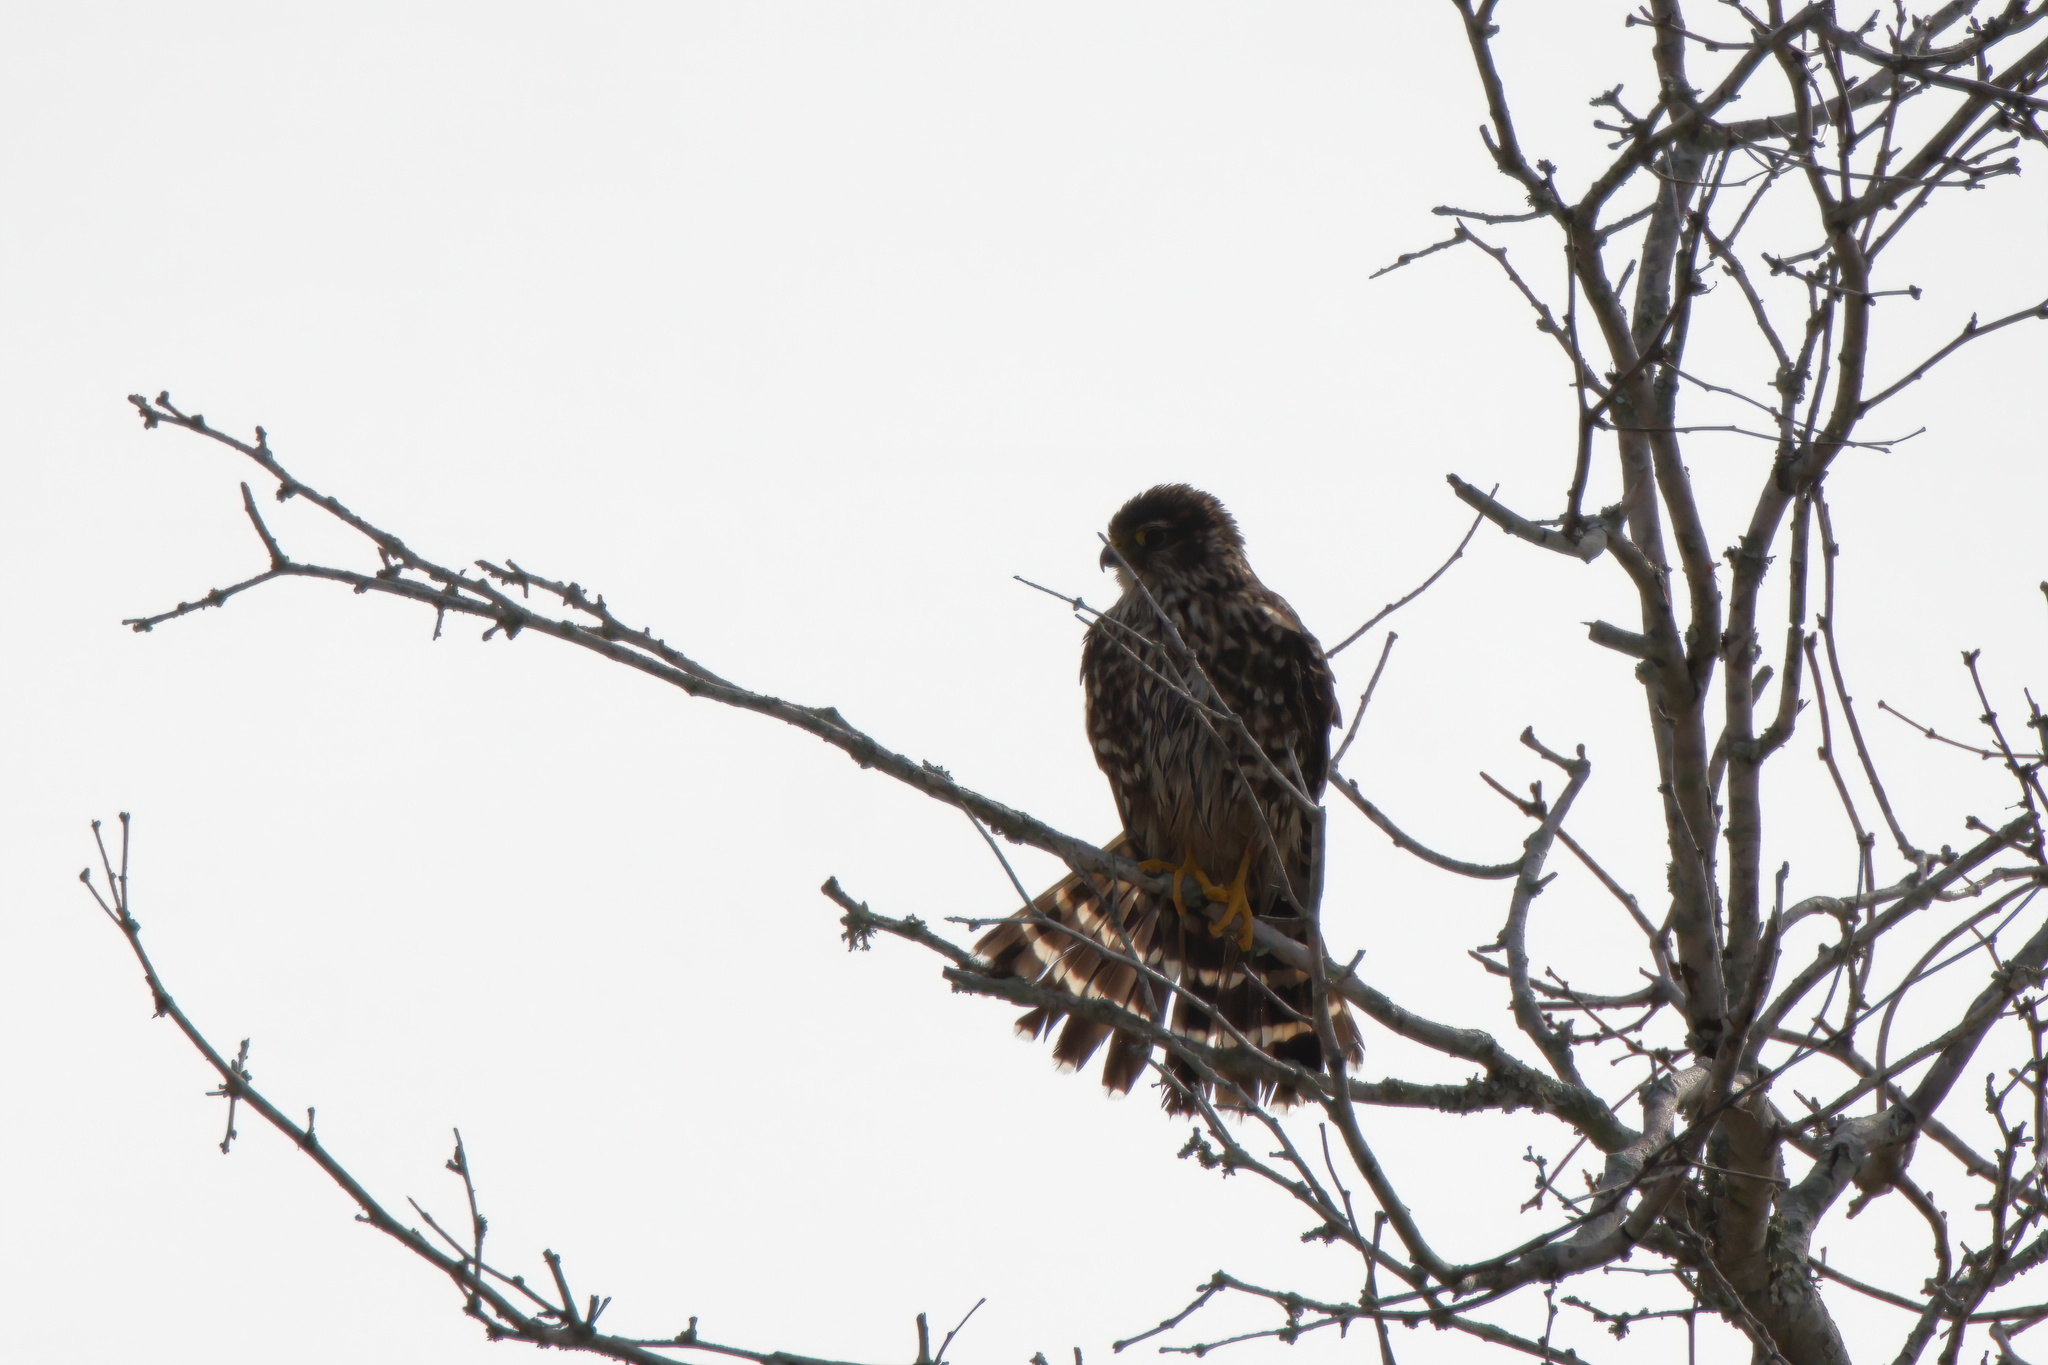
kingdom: Animalia
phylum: Chordata
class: Aves
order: Falconiformes
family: Falconidae
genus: Falco
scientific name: Falco columbarius
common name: Merlin
